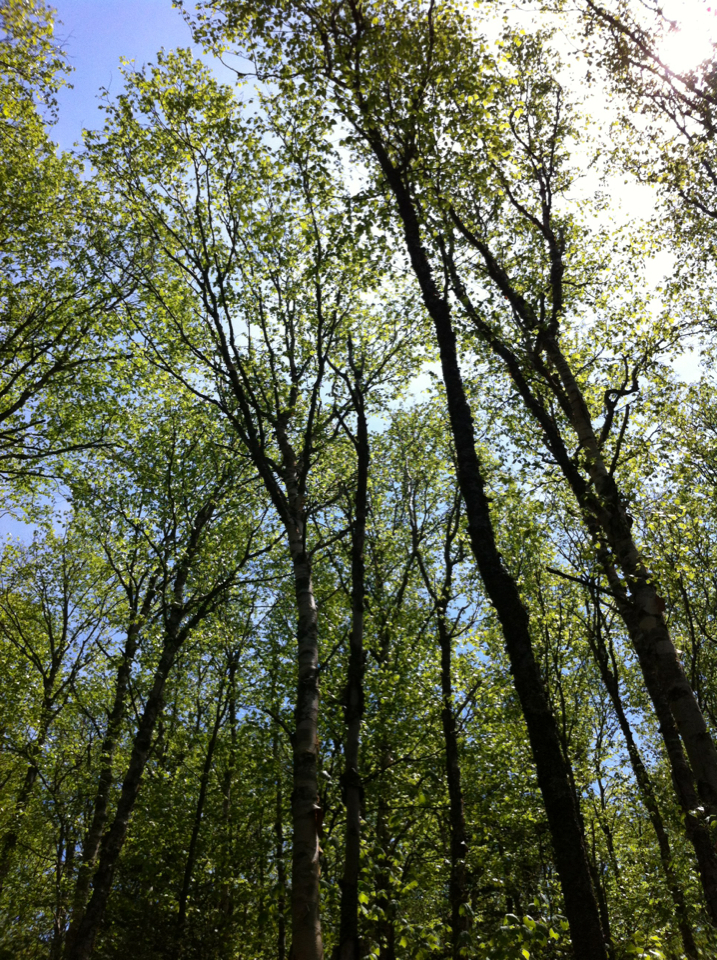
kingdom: Plantae
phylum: Tracheophyta
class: Magnoliopsida
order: Fagales
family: Betulaceae
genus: Betula
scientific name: Betula cordifolia
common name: Mountain white birch
